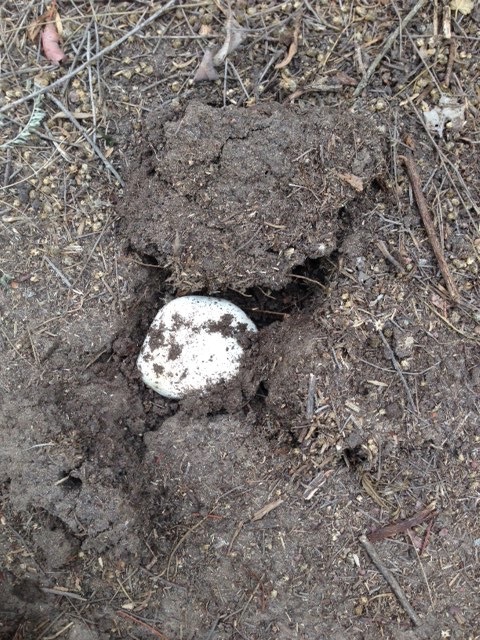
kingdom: Fungi
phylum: Basidiomycota
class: Agaricomycetes
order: Agaricales
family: Agaricaceae
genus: Agaricus
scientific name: Agaricus bitorquis
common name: Pavement mushroom
